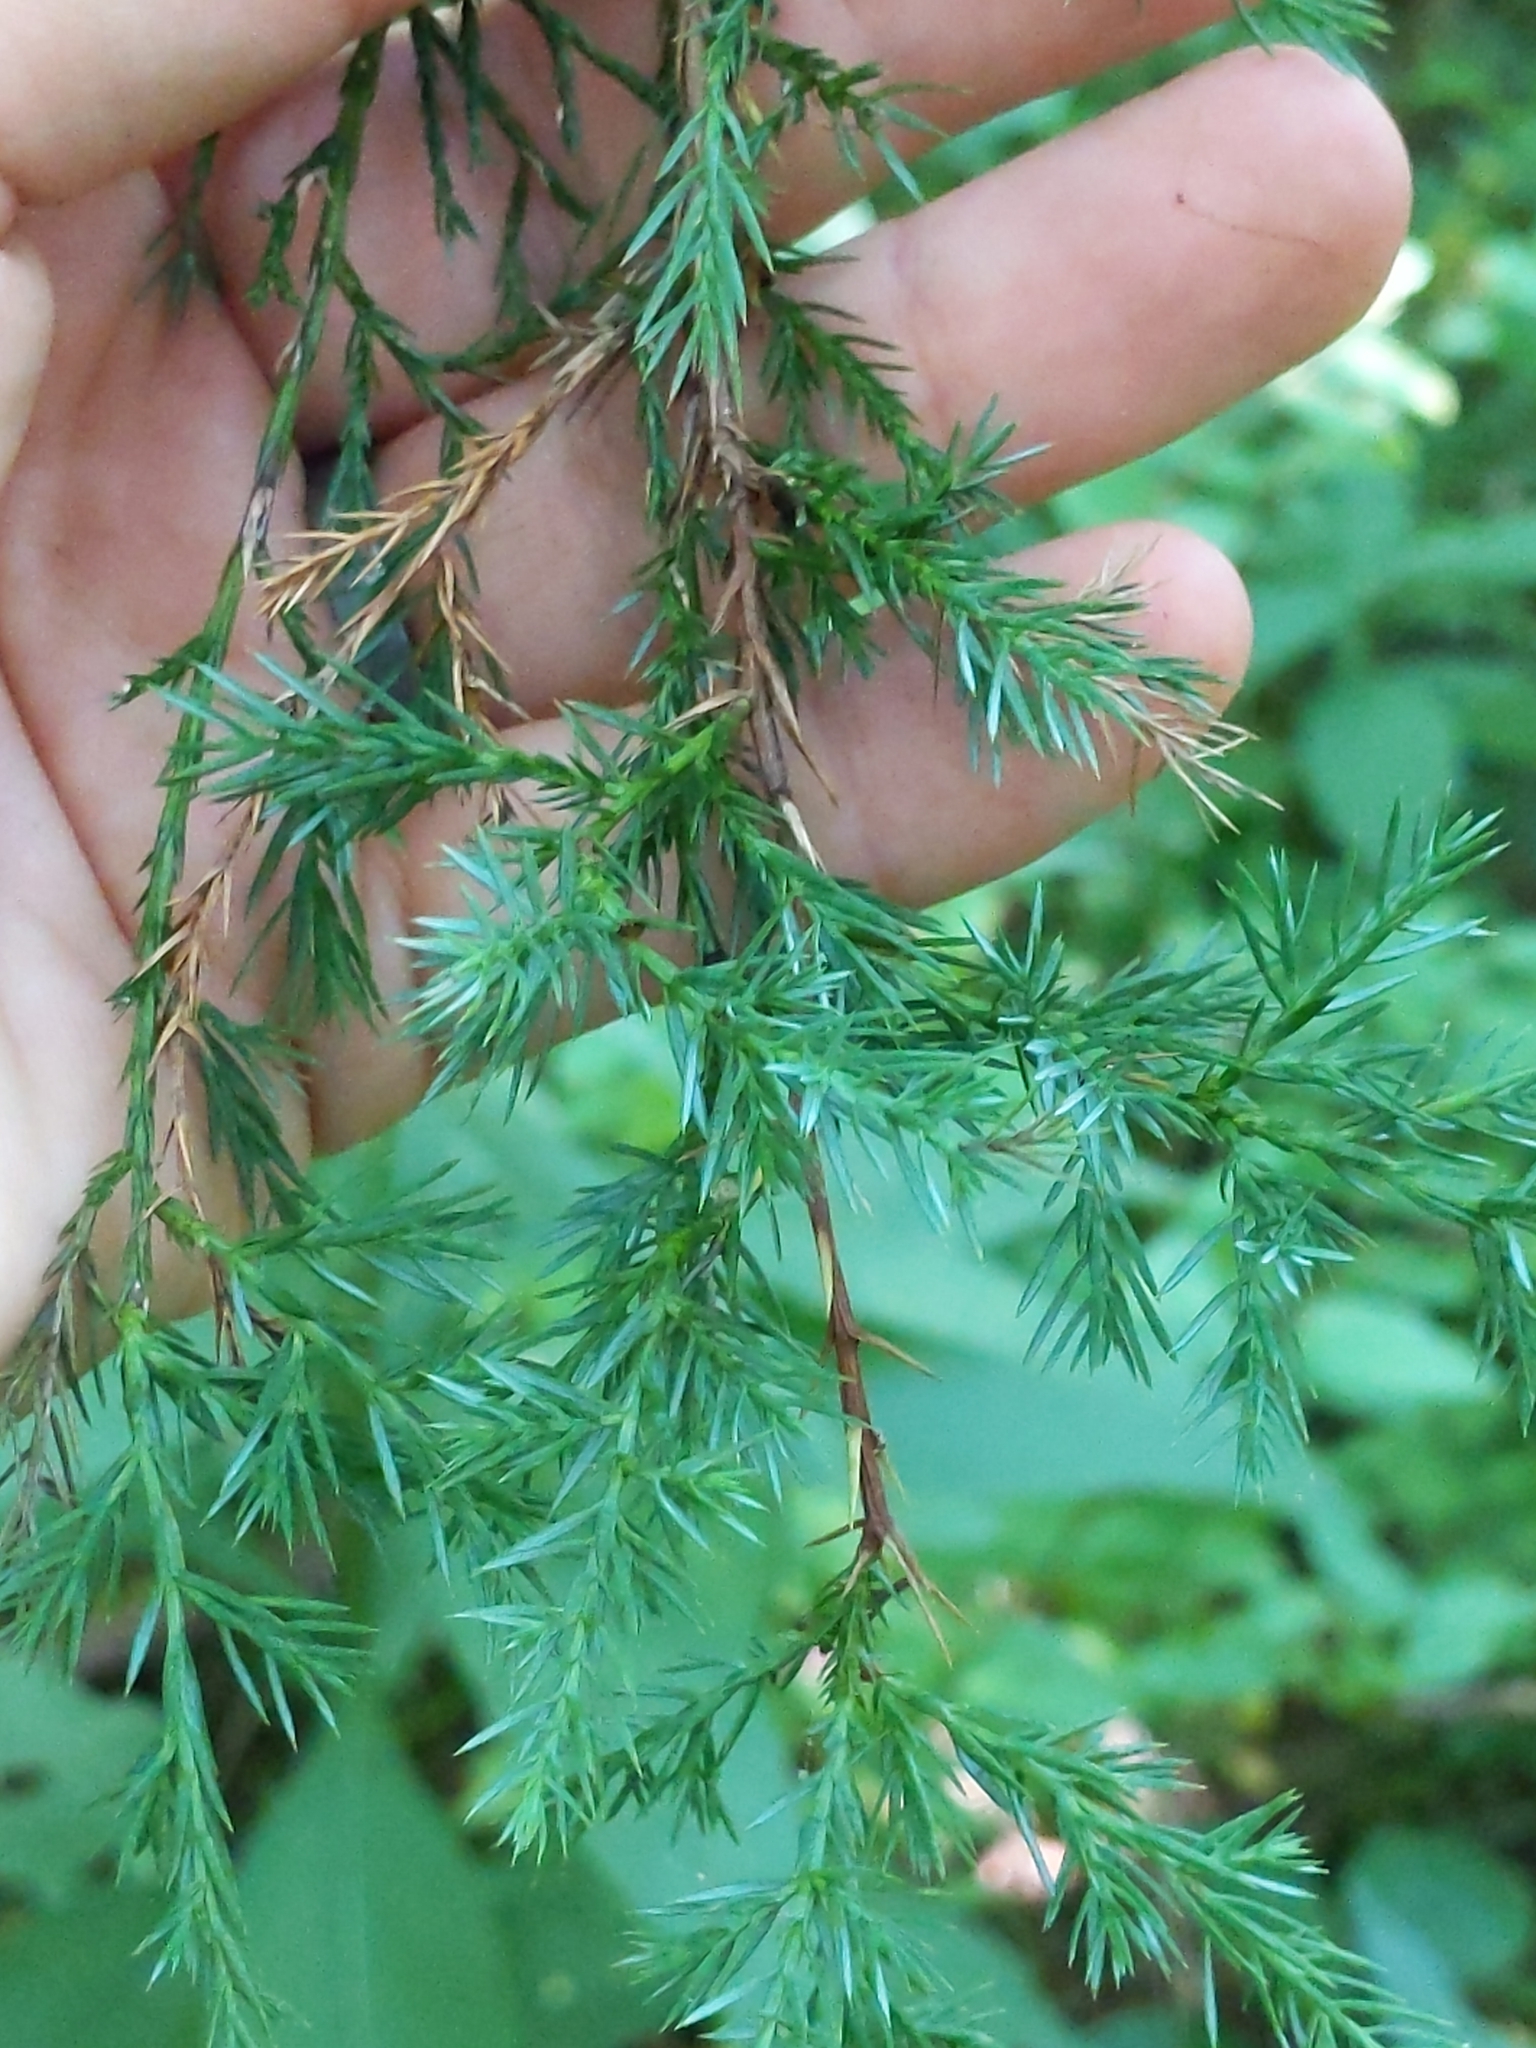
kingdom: Plantae
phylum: Tracheophyta
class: Pinopsida
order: Pinales
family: Cupressaceae
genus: Juniperus
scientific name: Juniperus virginiana
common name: Red juniper
